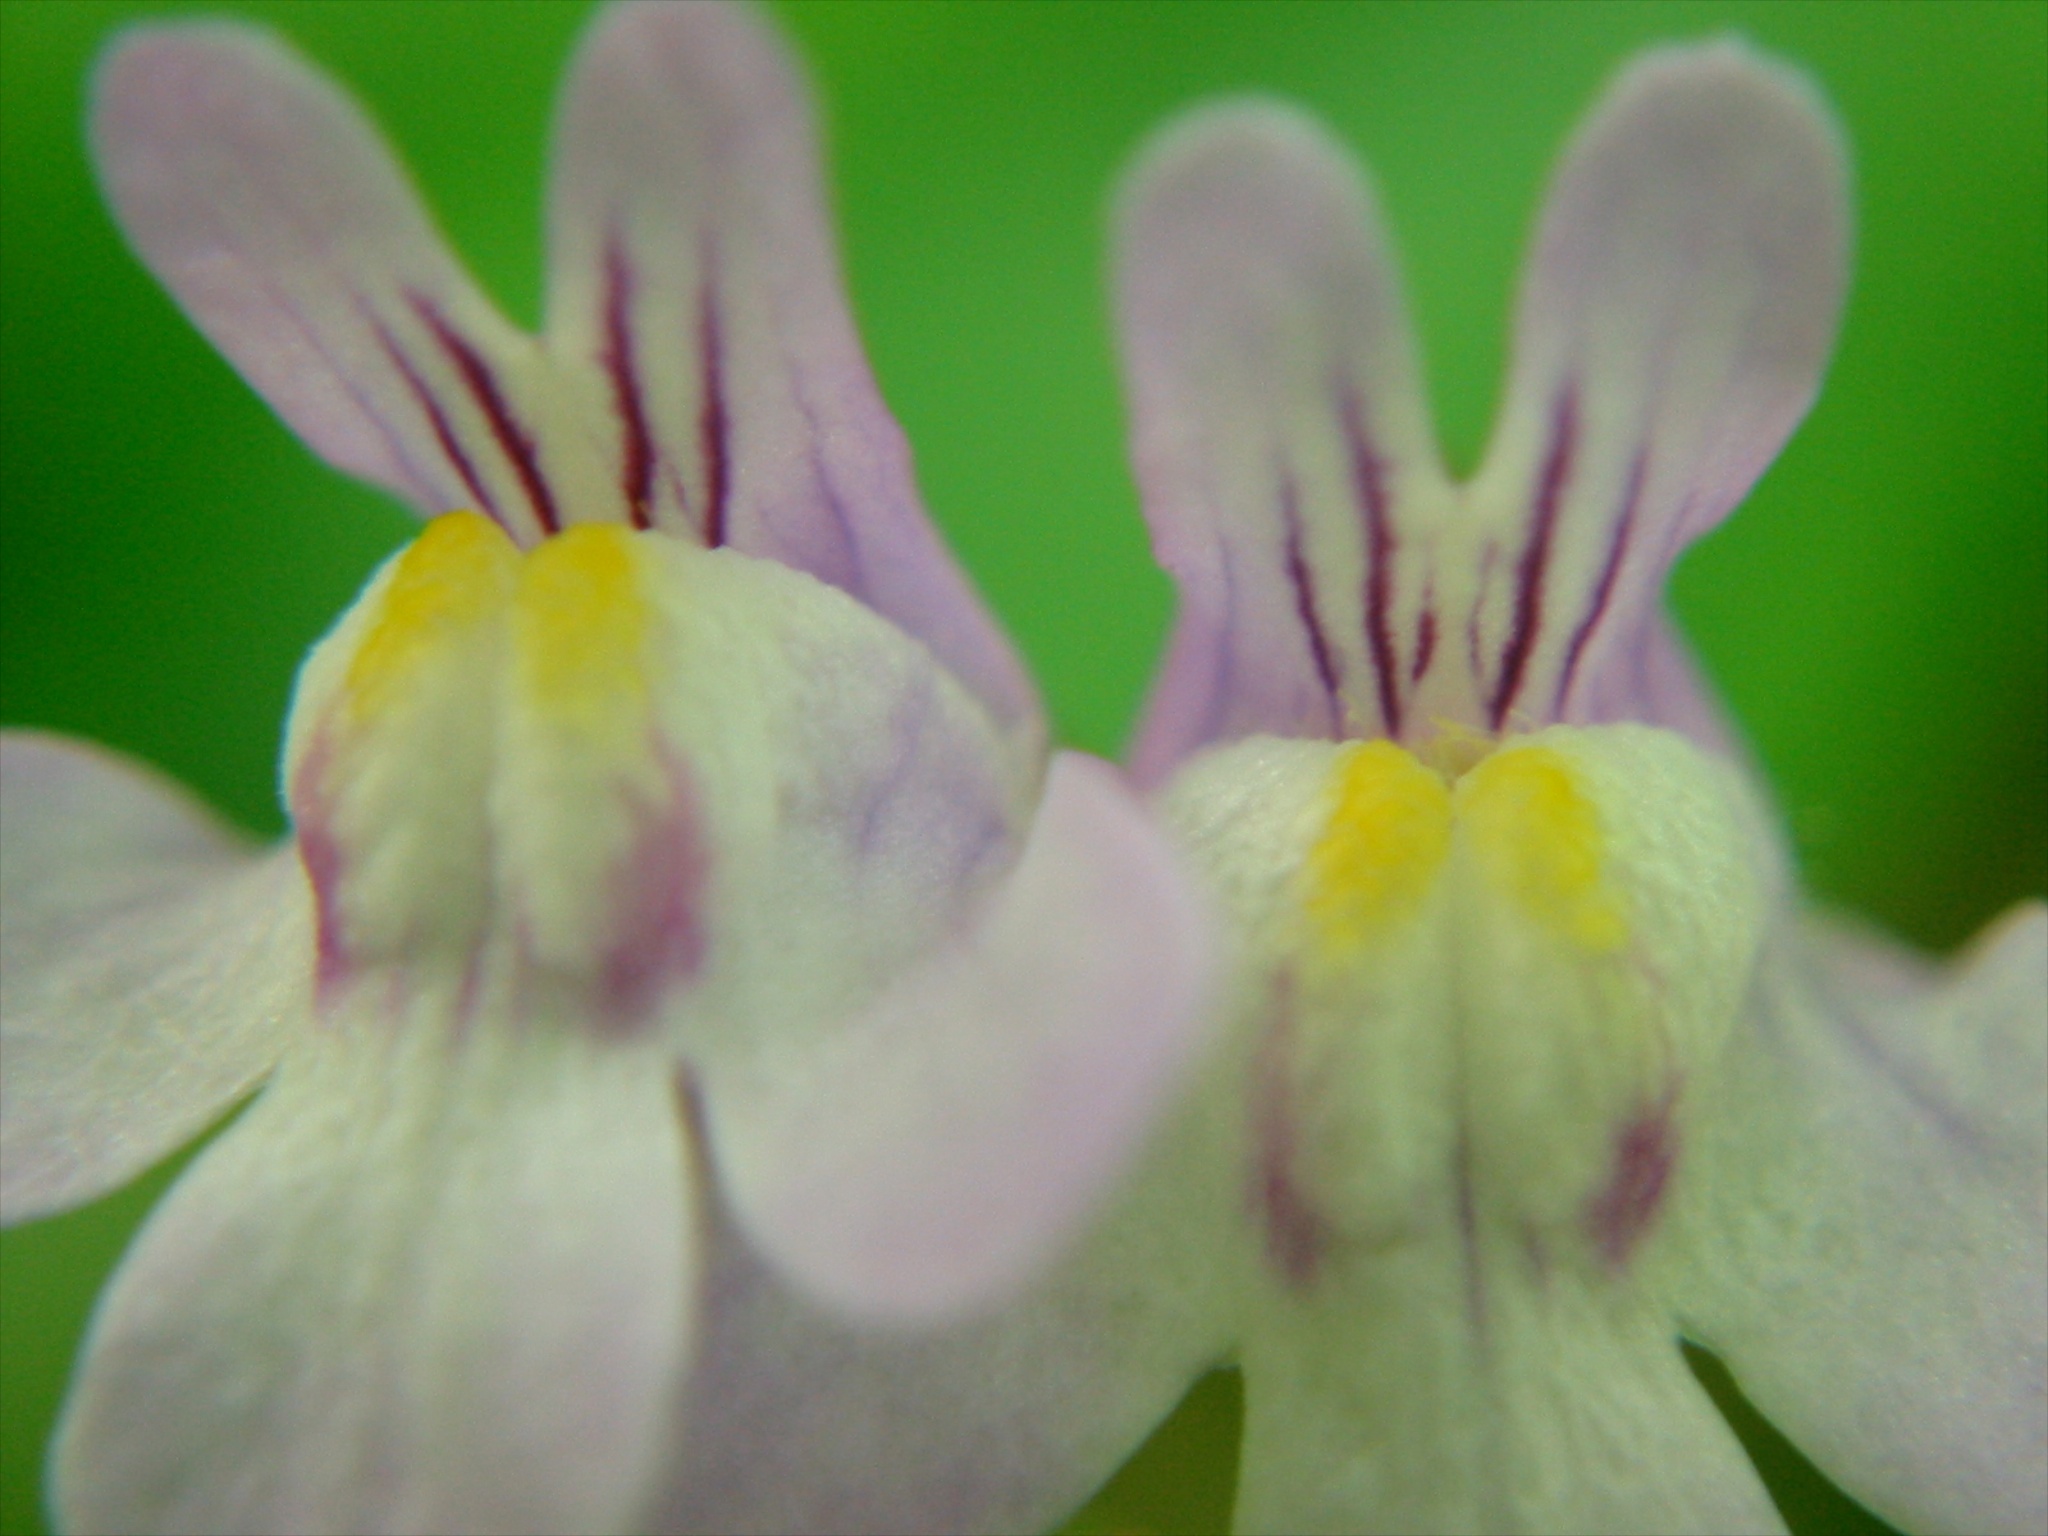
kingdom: Plantae
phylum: Tracheophyta
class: Magnoliopsida
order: Lamiales
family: Plantaginaceae
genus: Cymbalaria
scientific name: Cymbalaria muralis
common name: Ivy-leaved toadflax
